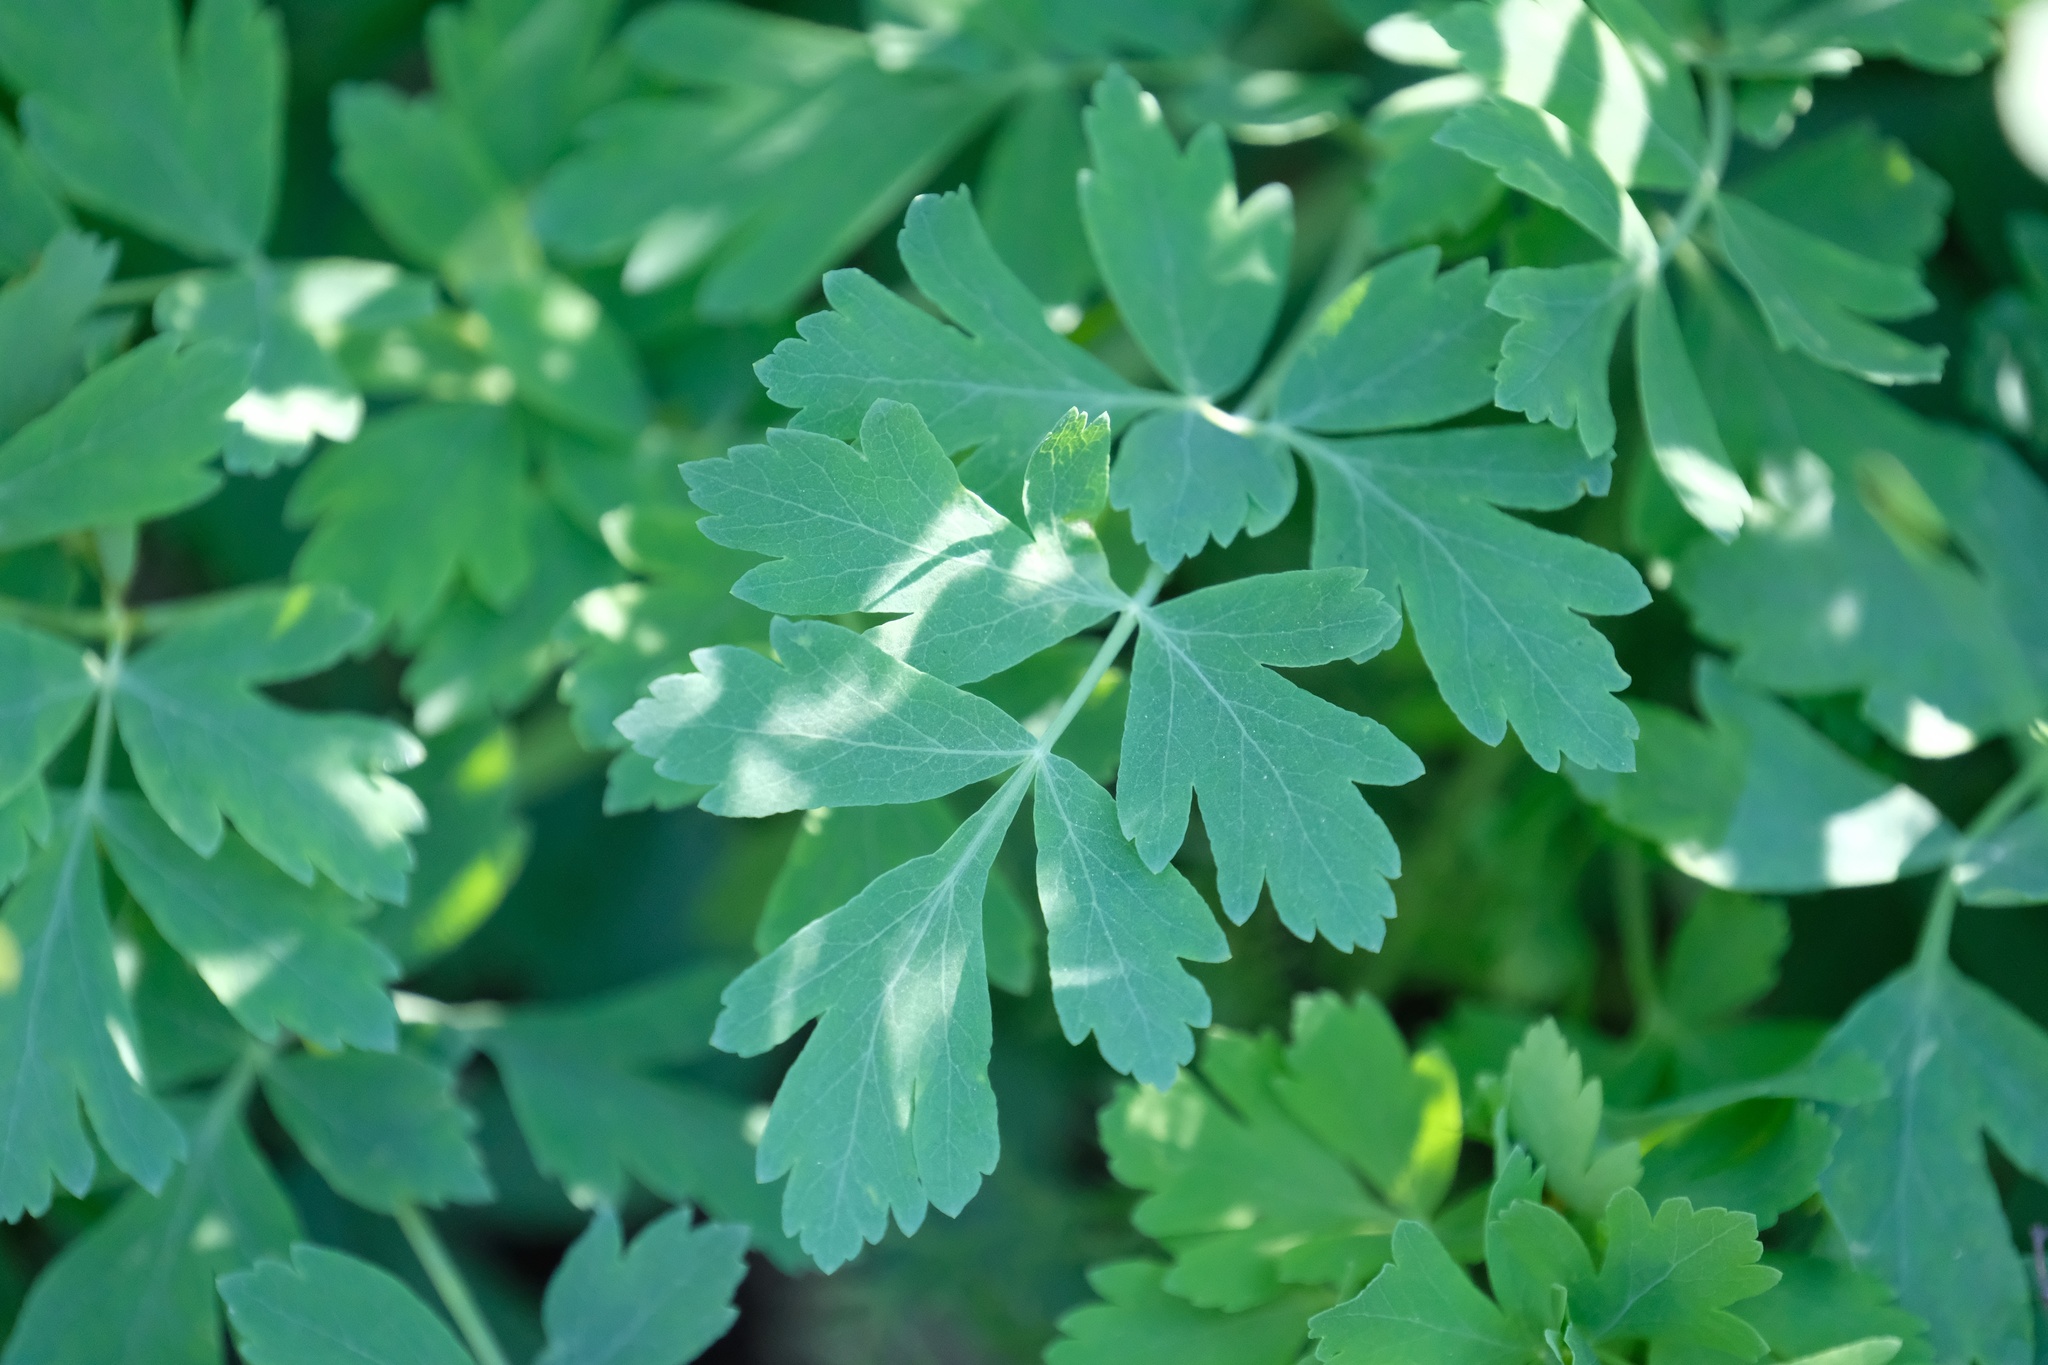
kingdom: Plantae
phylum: Tracheophyta
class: Magnoliopsida
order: Apiales
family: Apiaceae
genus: Lomatium
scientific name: Lomatium californicum
